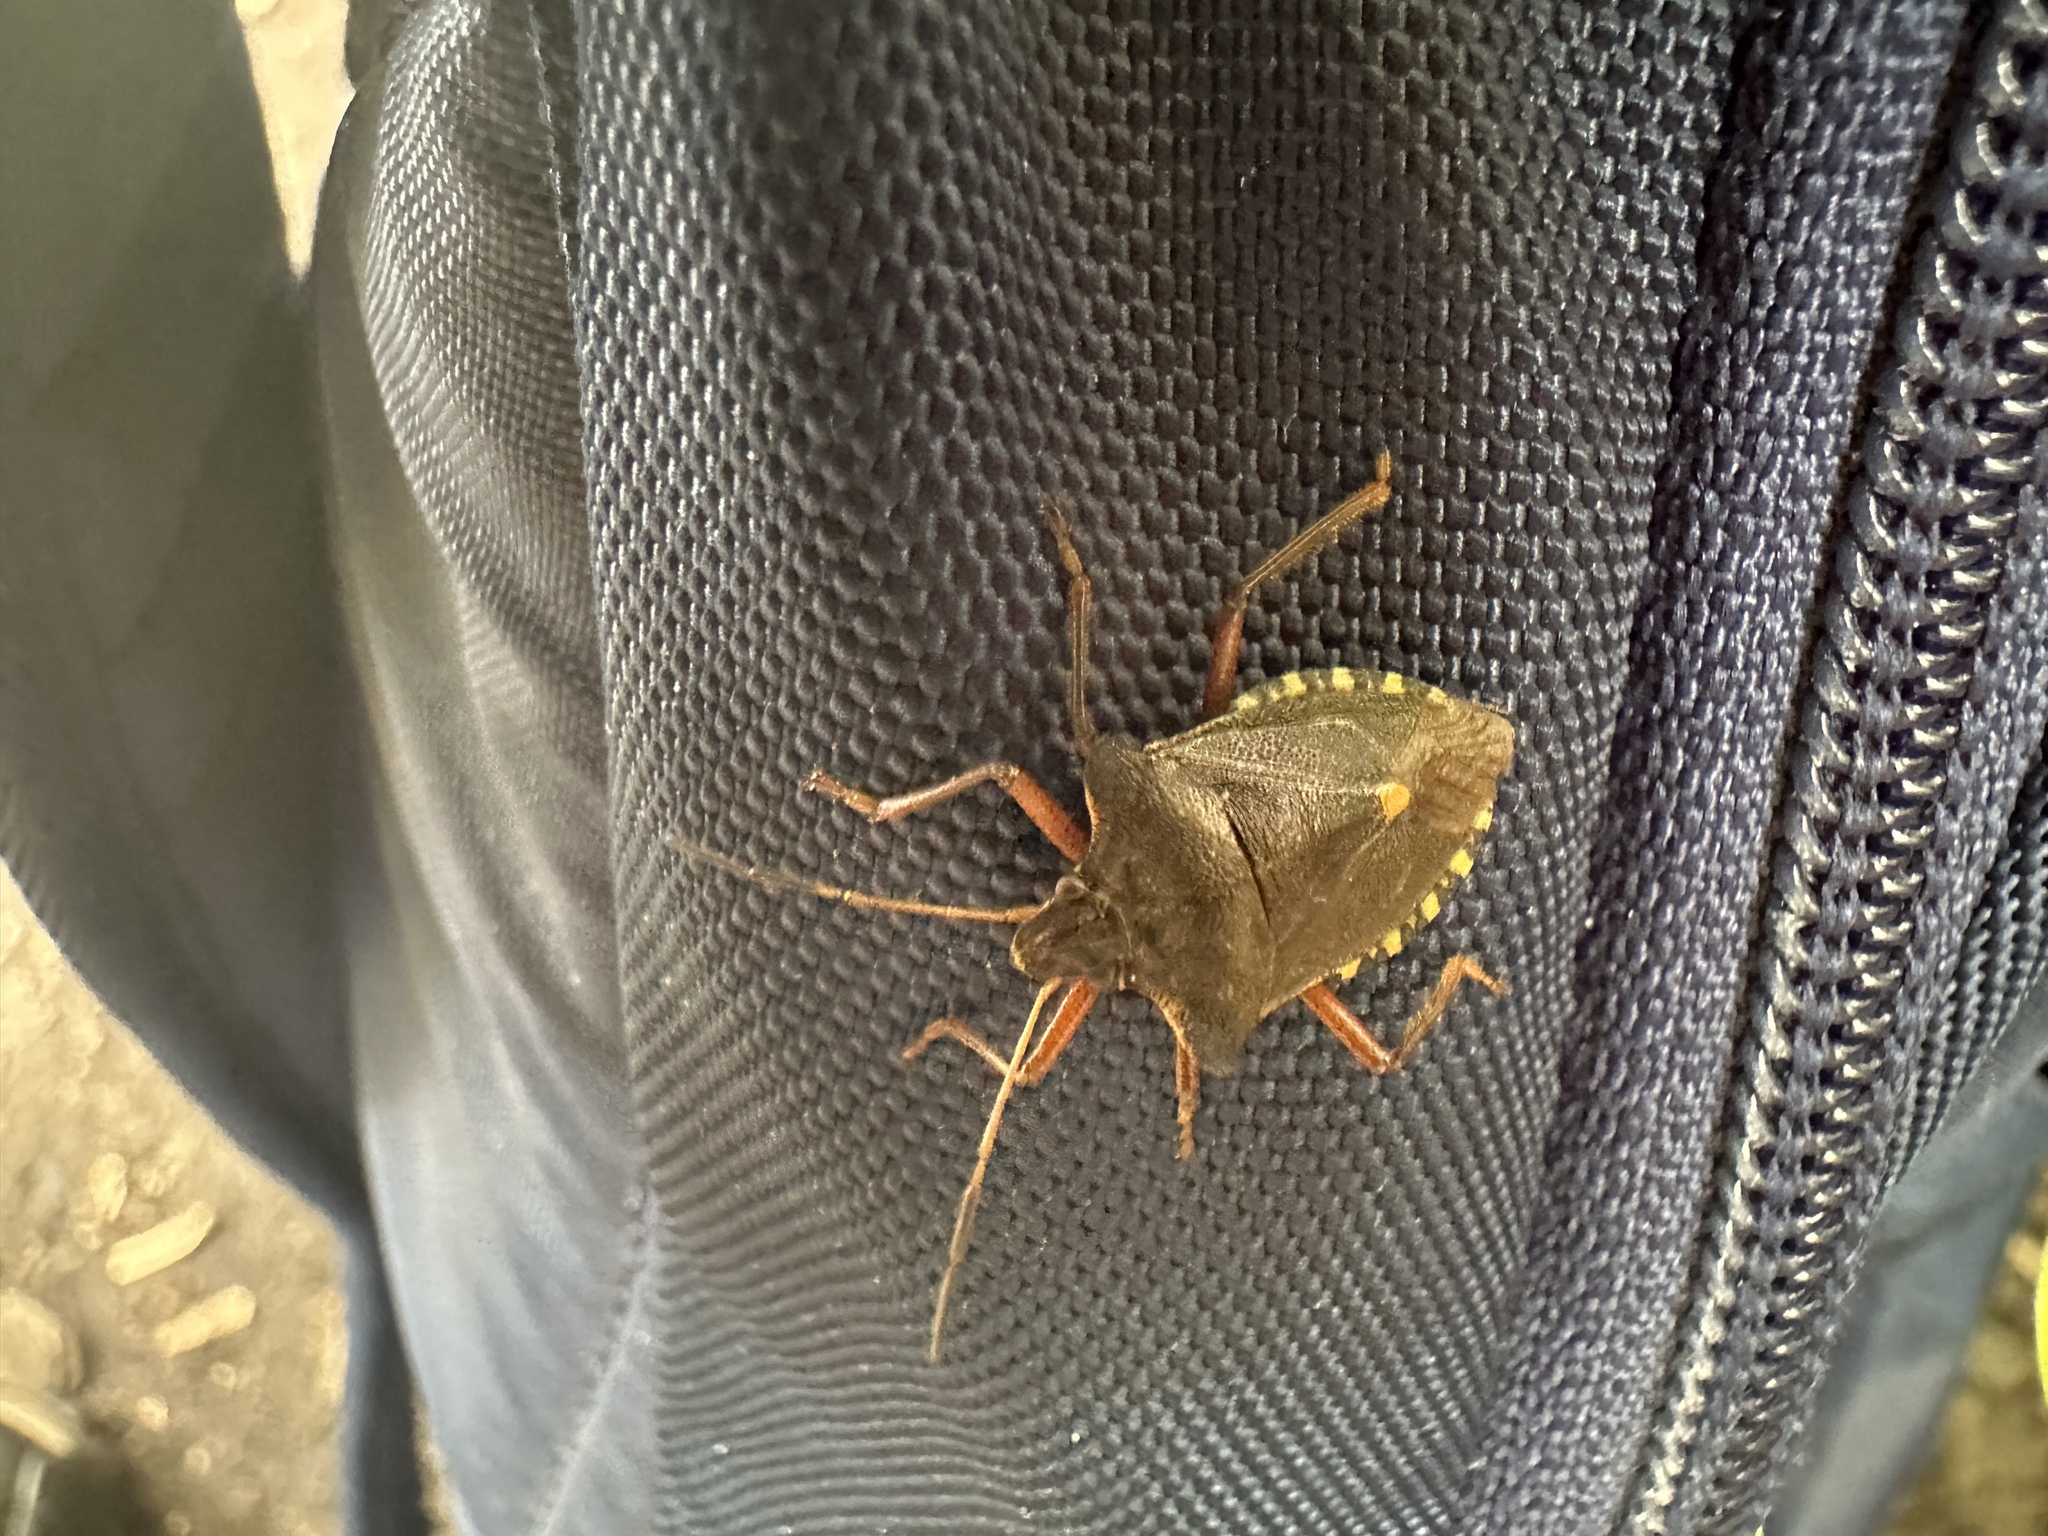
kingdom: Animalia
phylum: Arthropoda
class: Insecta
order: Hemiptera
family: Pentatomidae
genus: Pentatoma
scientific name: Pentatoma rufipes
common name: Forest bug
